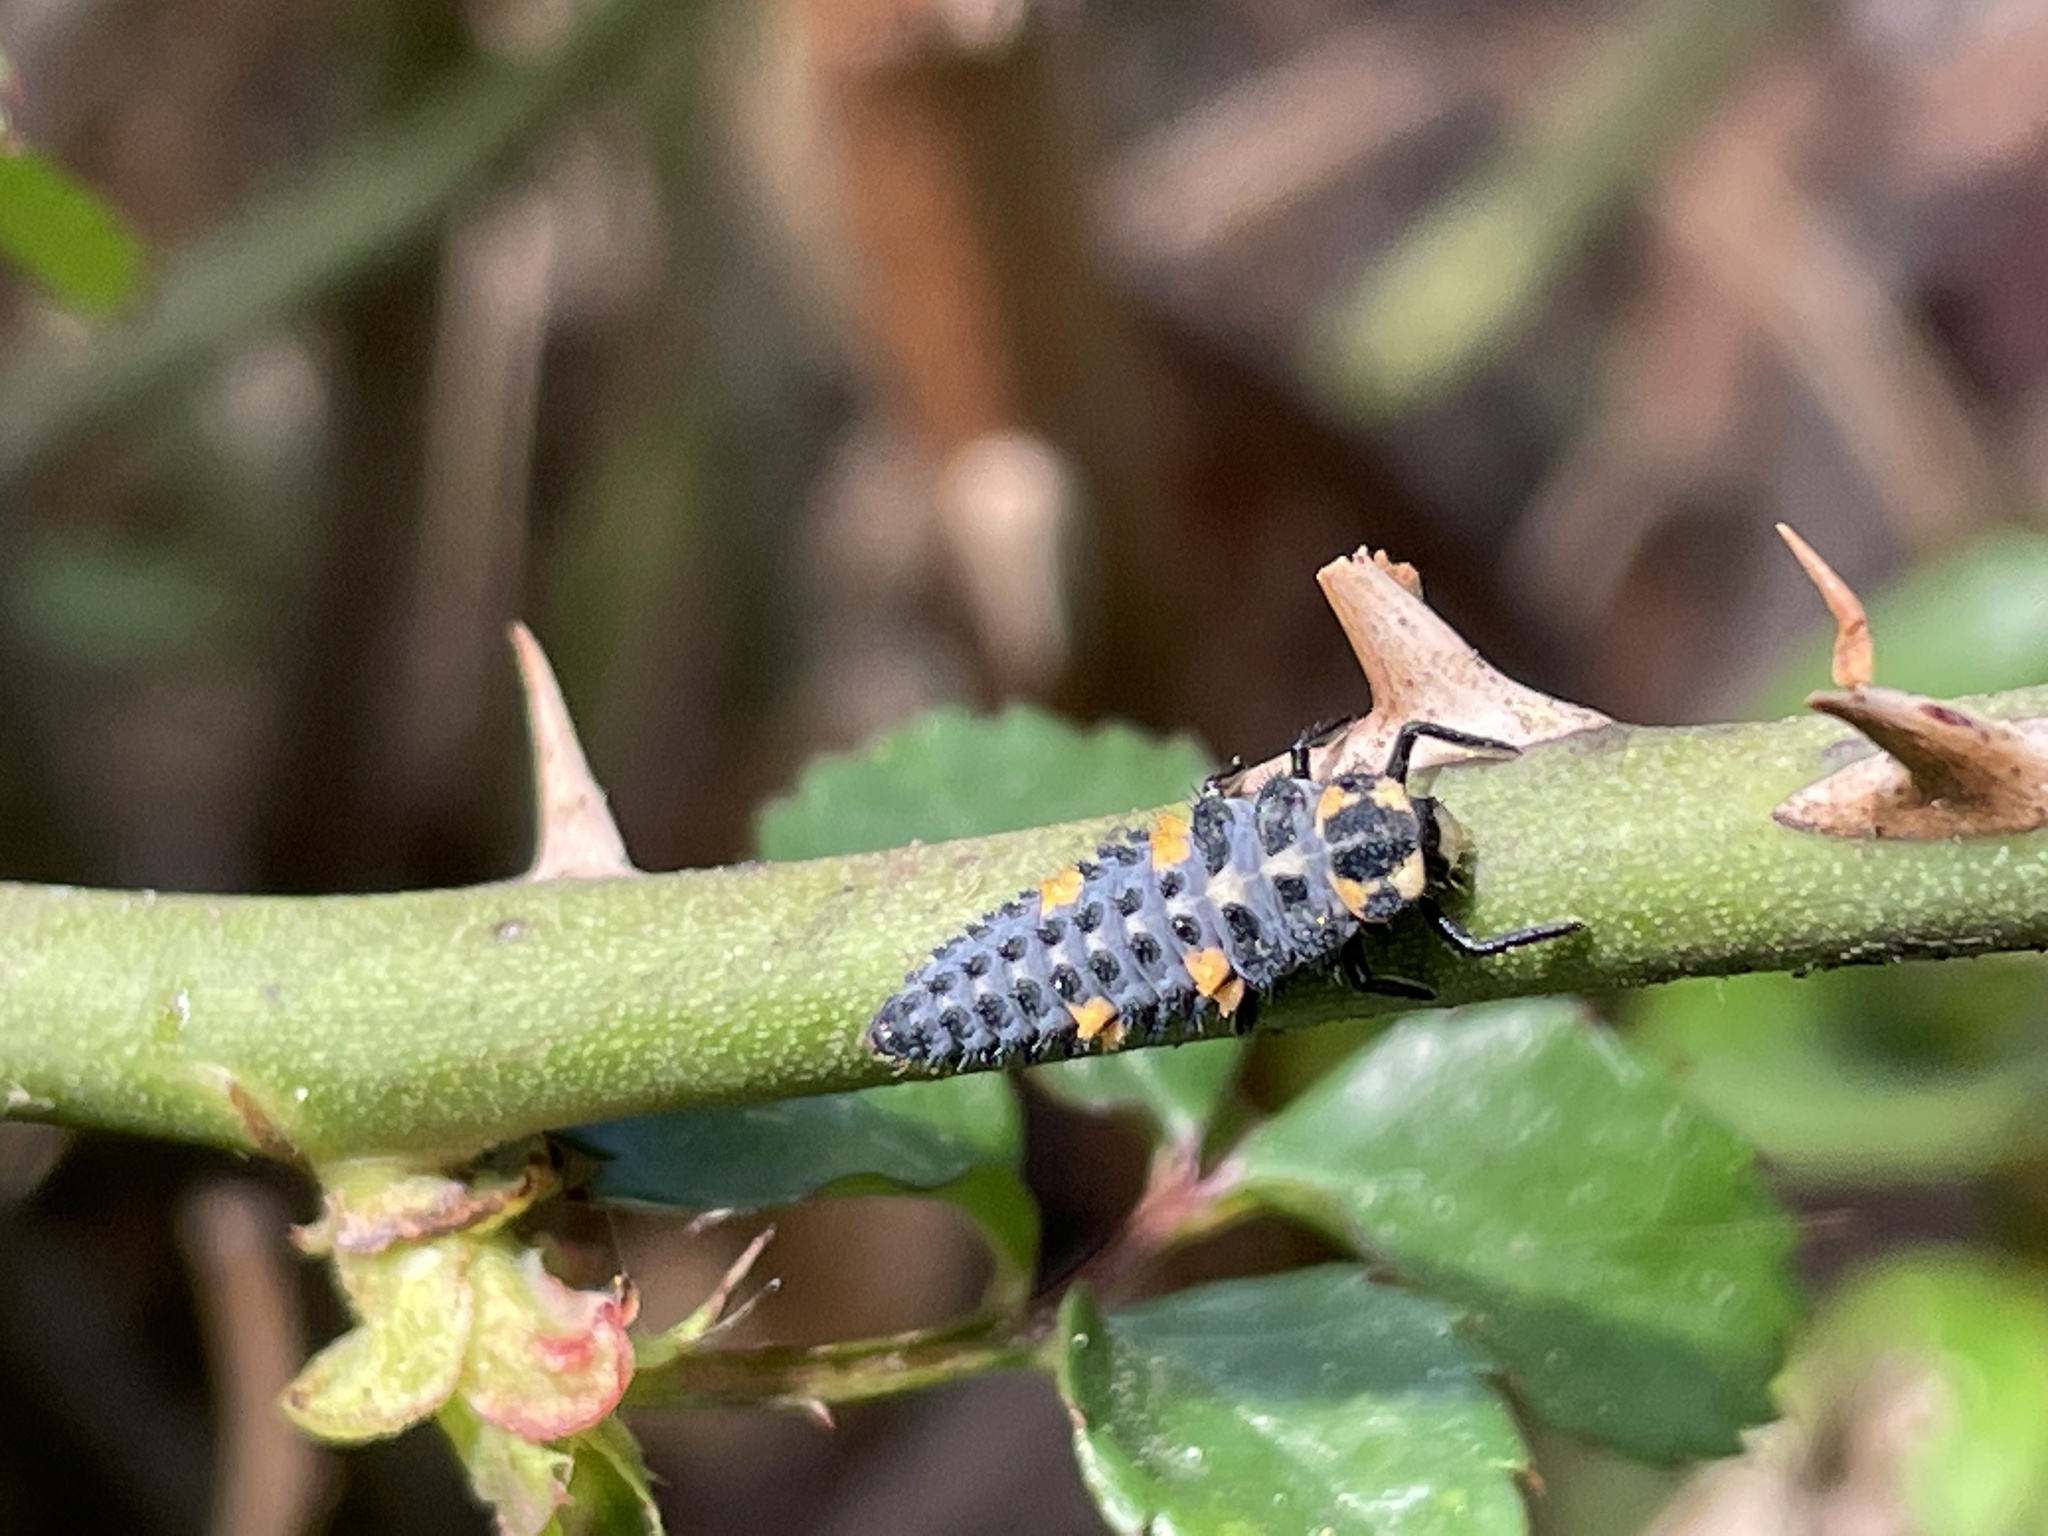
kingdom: Animalia
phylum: Arthropoda
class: Insecta
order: Coleoptera
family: Coccinellidae
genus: Coccinella
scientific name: Coccinella septempunctata
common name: Sevenspotted lady beetle
